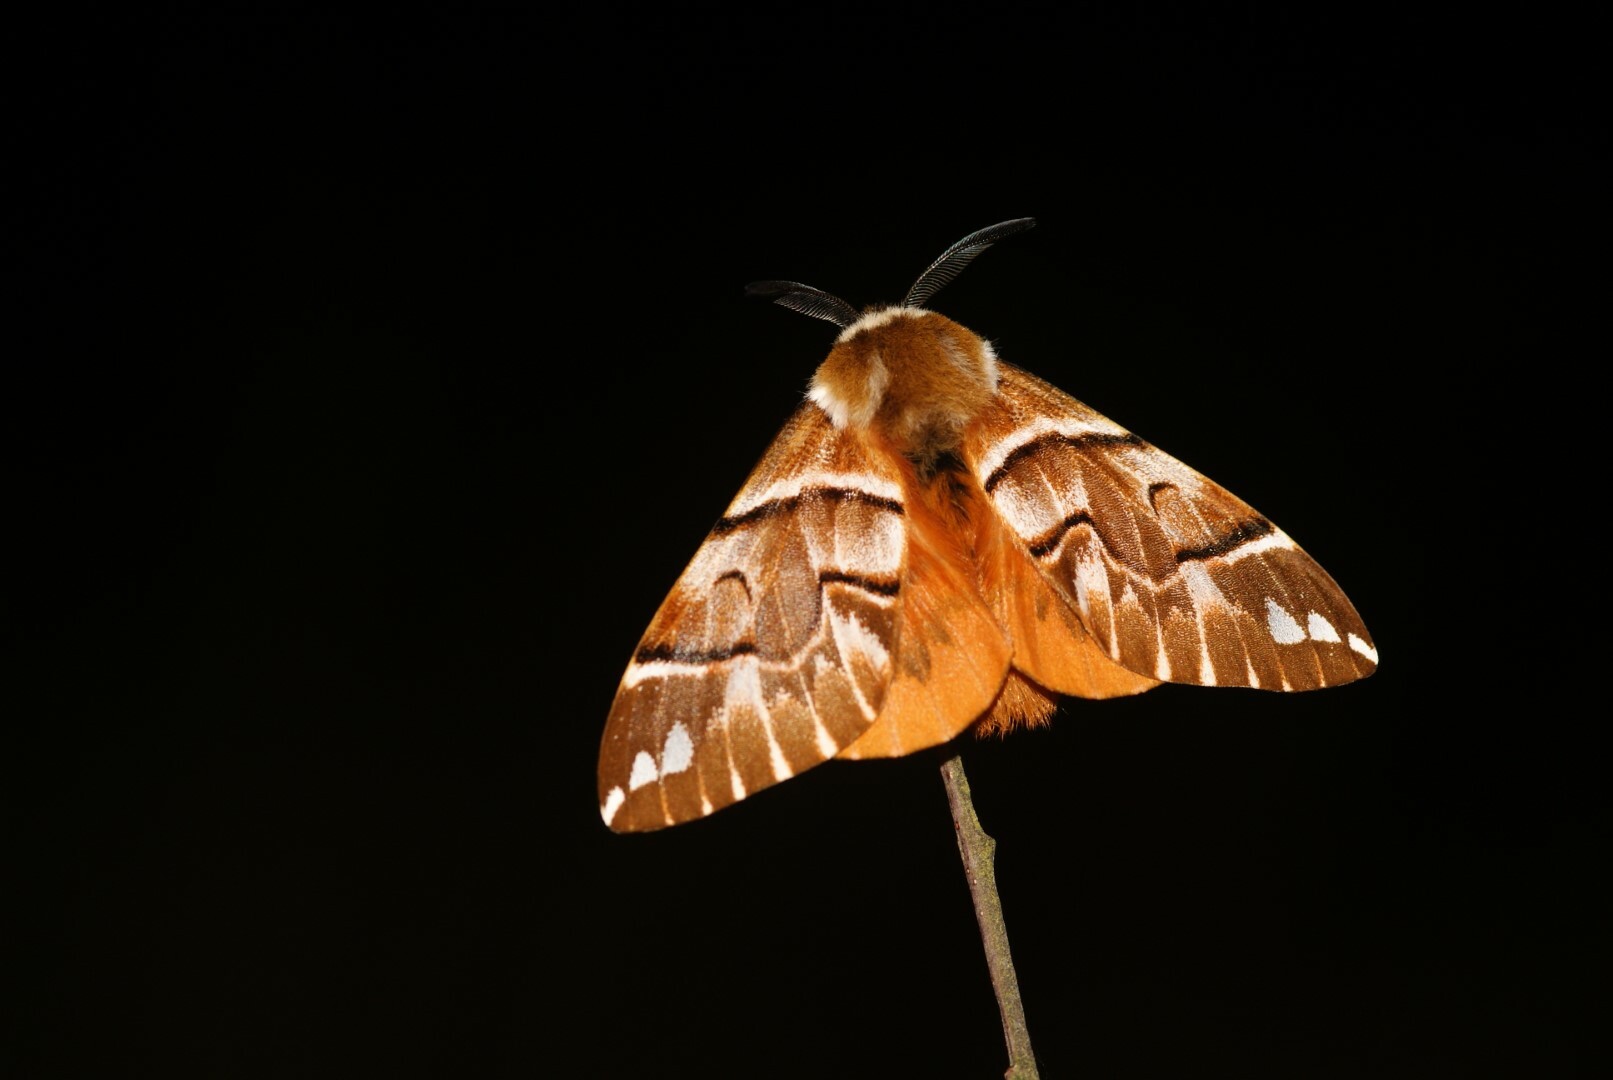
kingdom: Animalia
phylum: Arthropoda
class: Insecta
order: Lepidoptera
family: Endromidae
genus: Endromis
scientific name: Endromis versicolora
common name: Kentish glory
